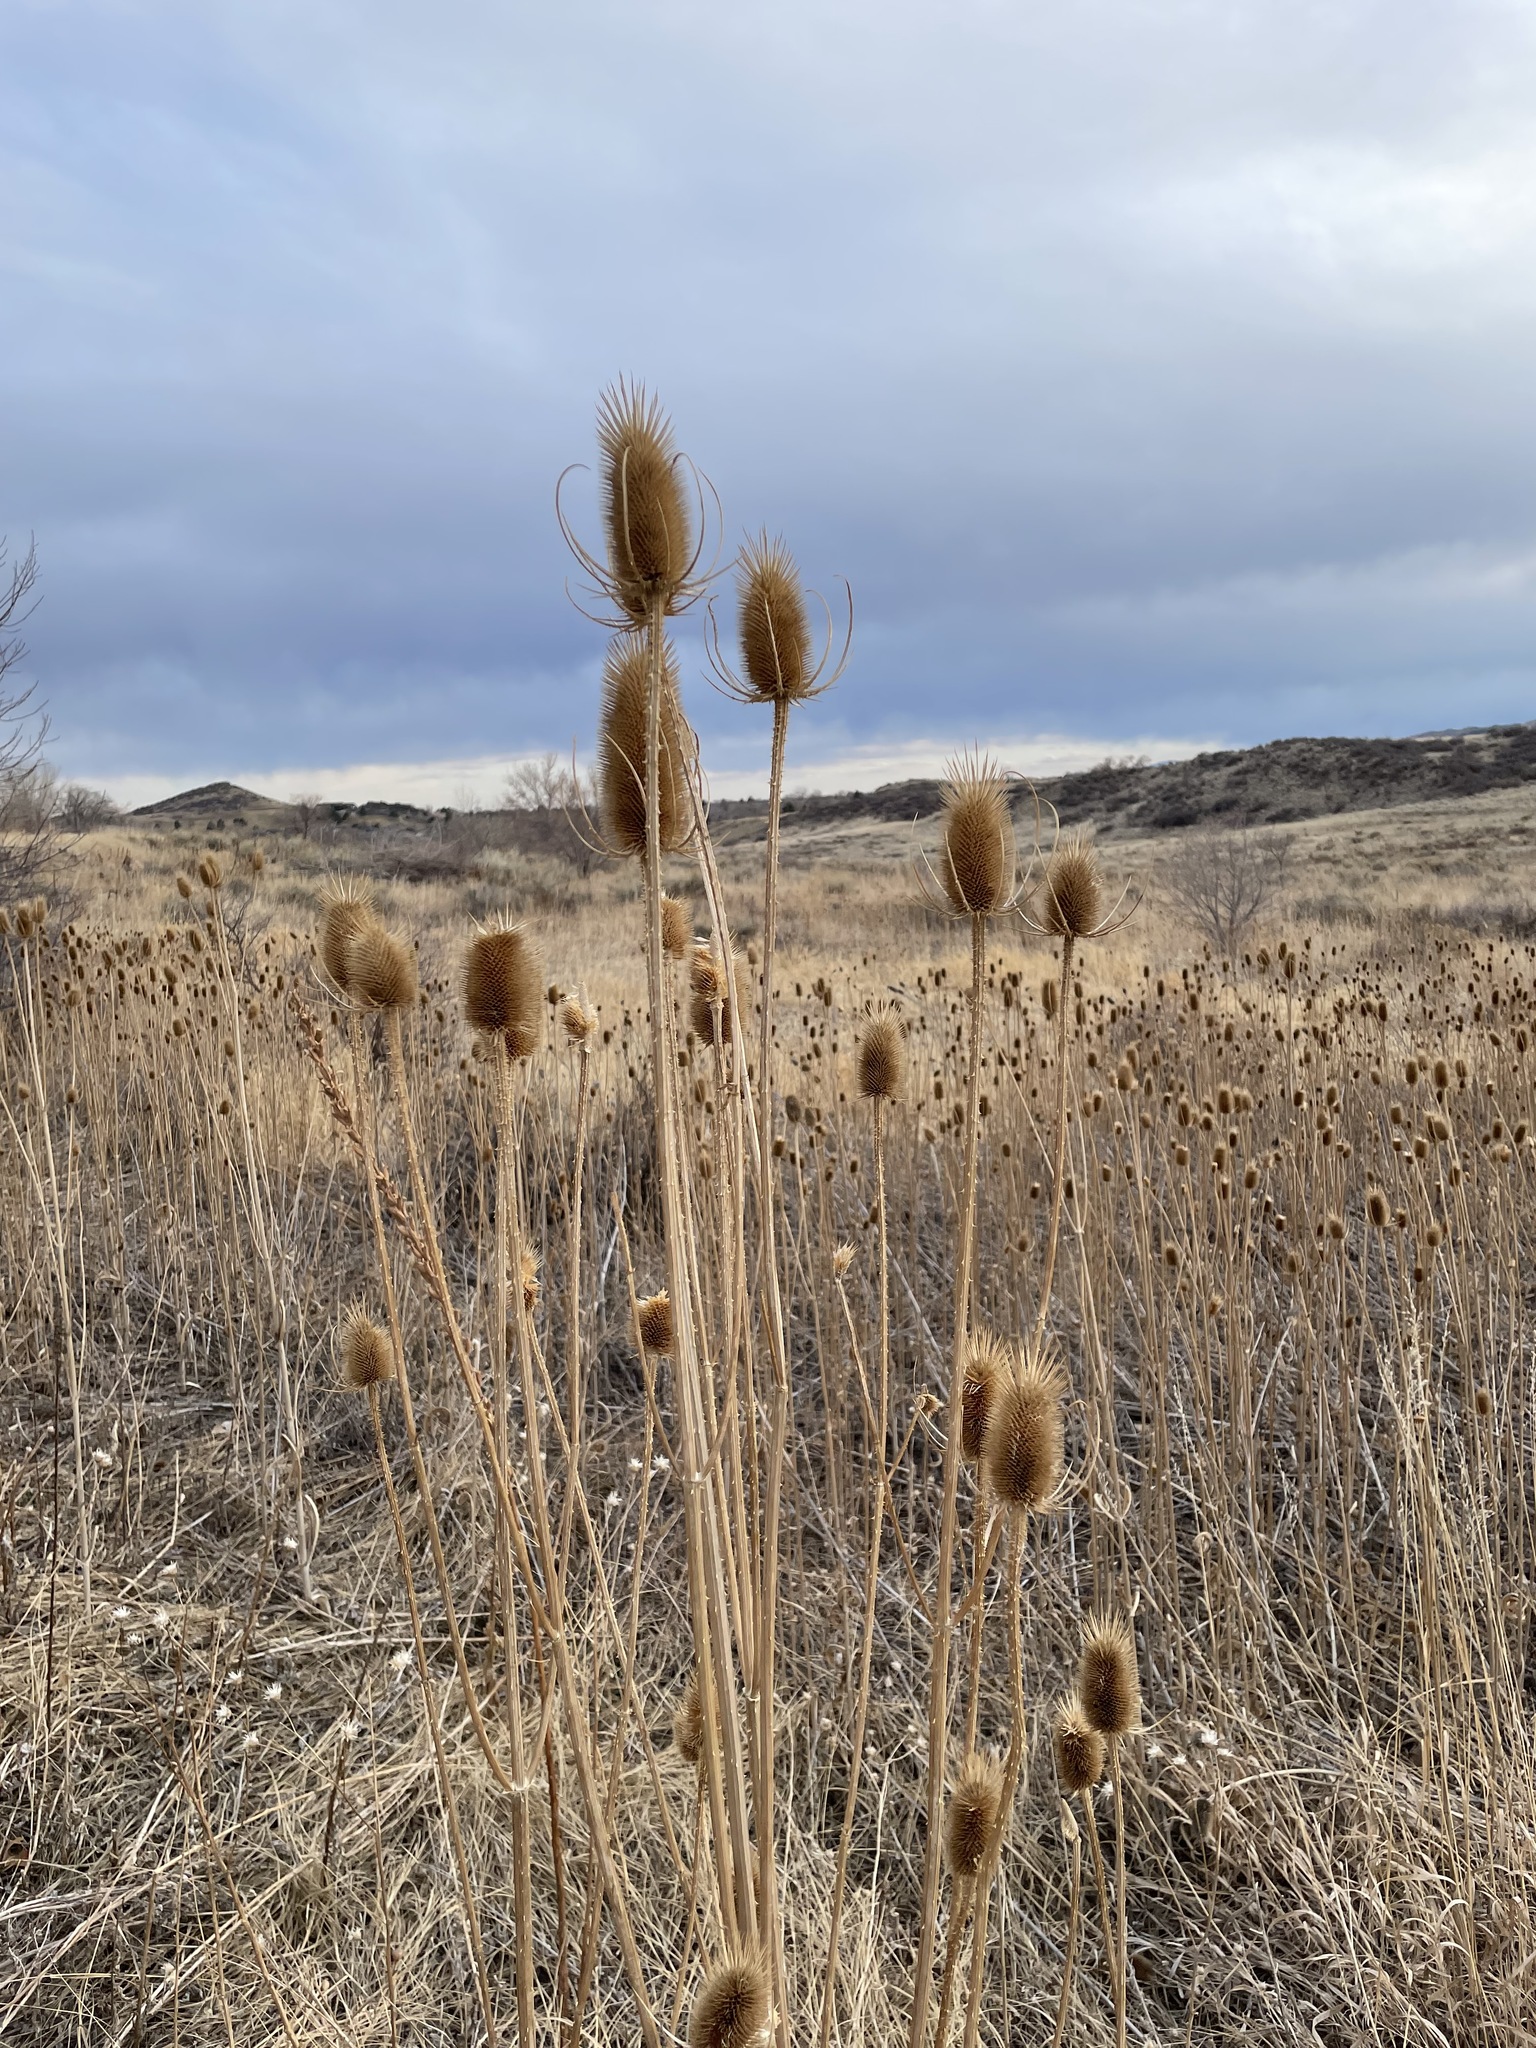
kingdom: Plantae
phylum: Tracheophyta
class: Magnoliopsida
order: Dipsacales
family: Caprifoliaceae
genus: Dipsacus
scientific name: Dipsacus fullonum
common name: Teasel
